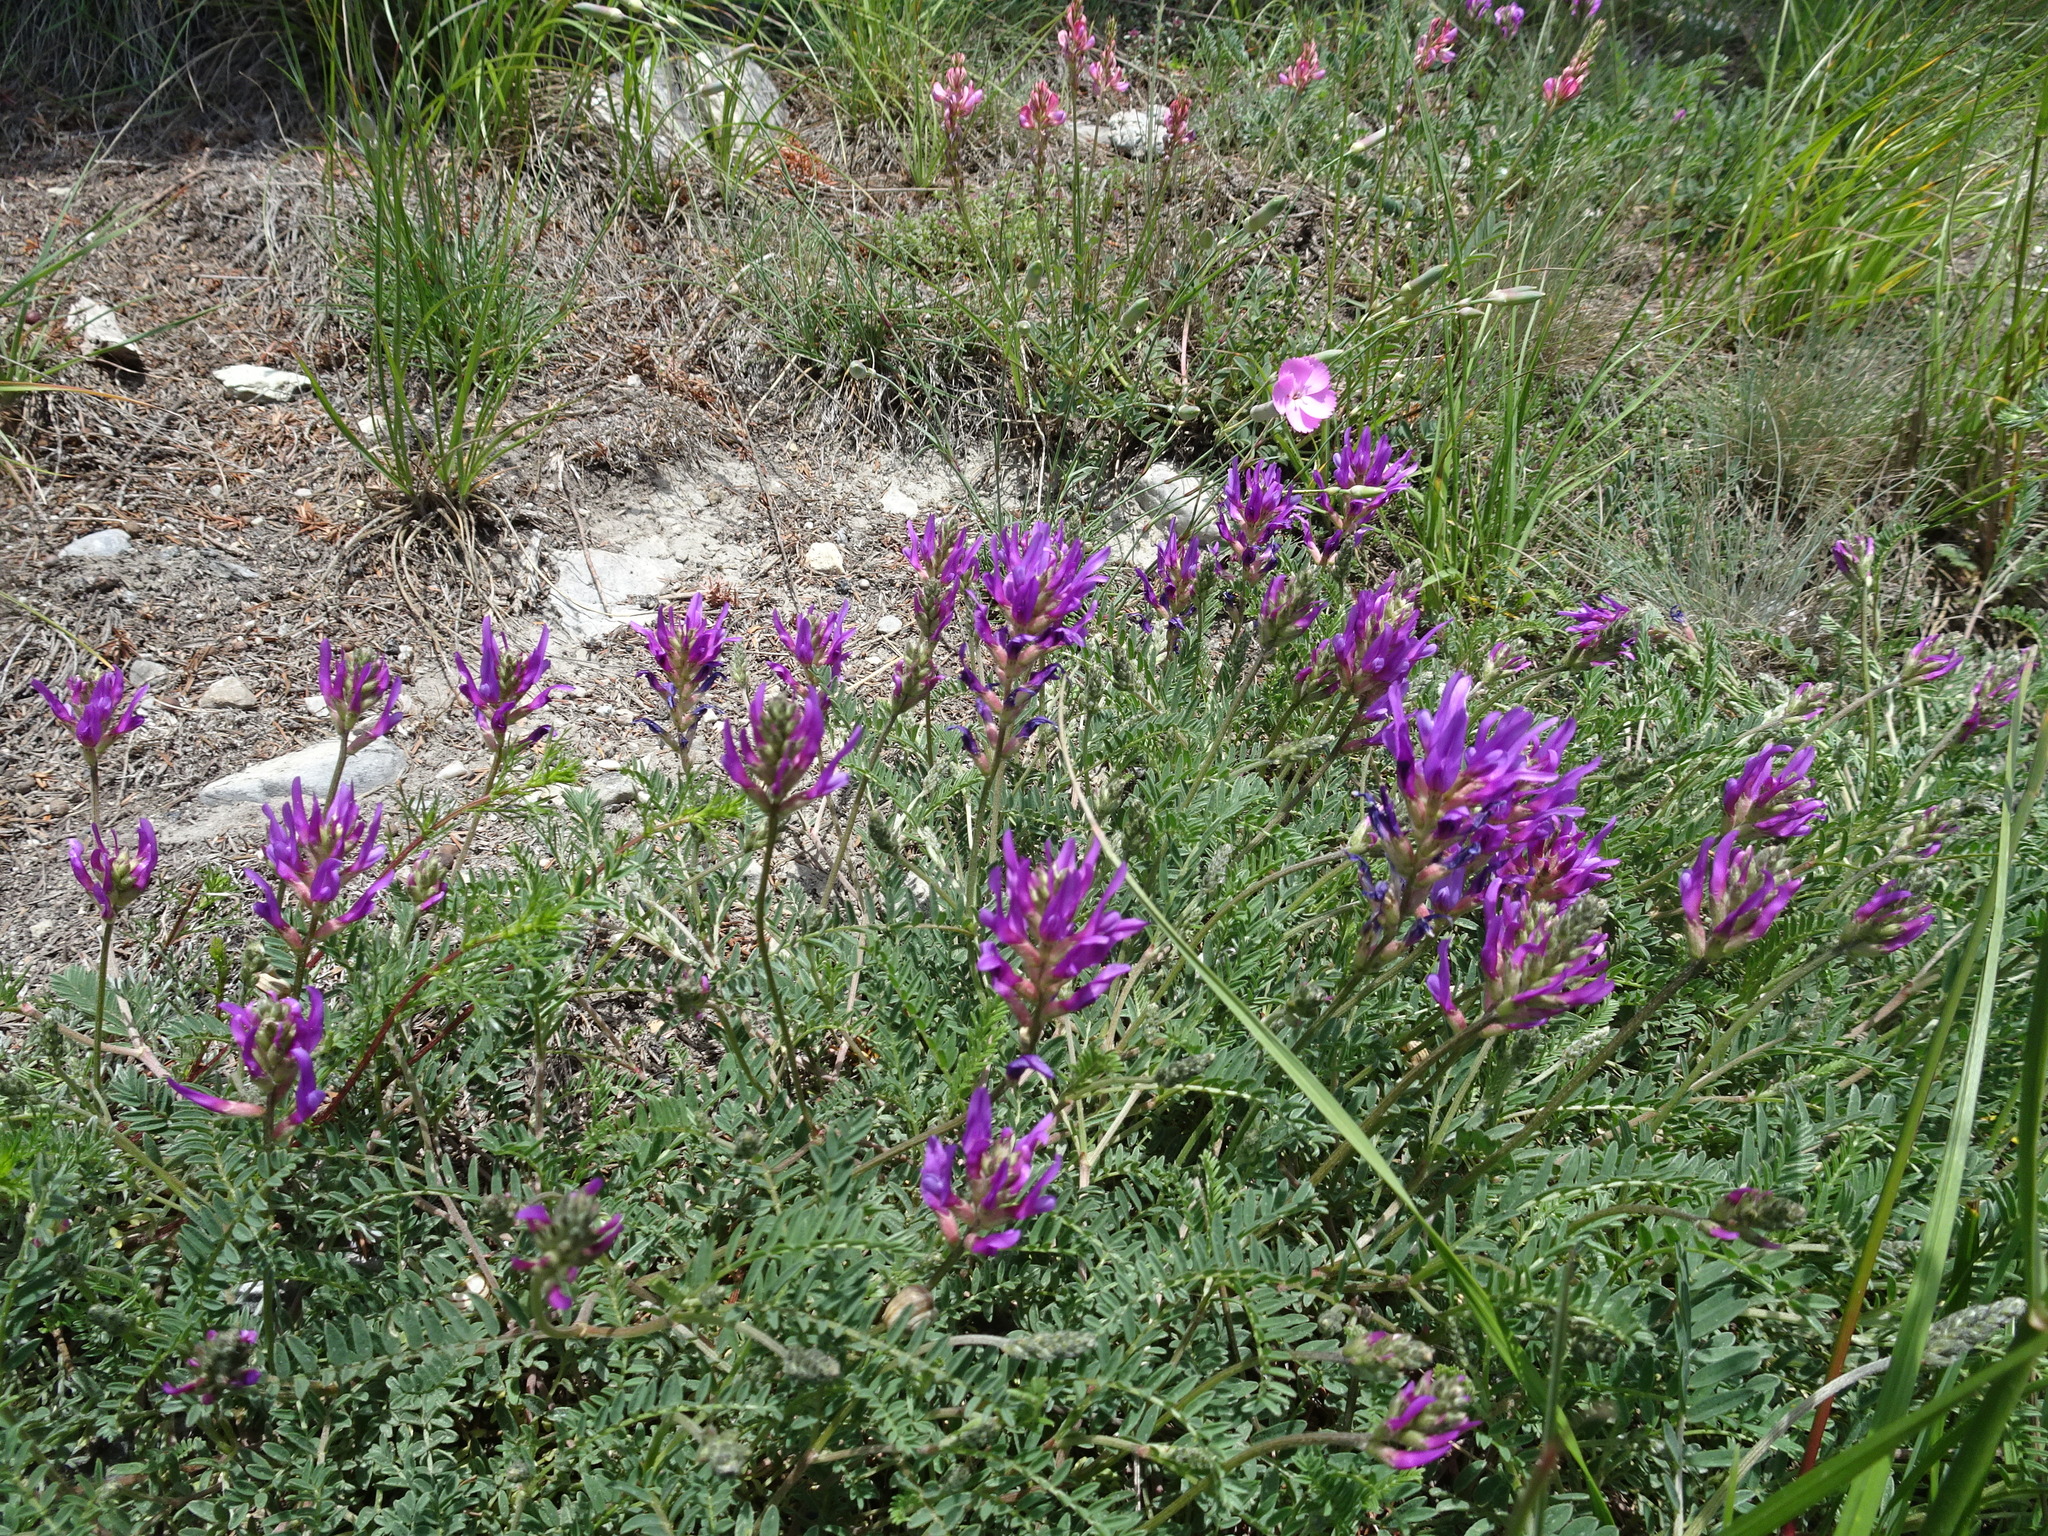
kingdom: Plantae
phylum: Tracheophyta
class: Magnoliopsida
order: Fabales
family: Fabaceae
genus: Astragalus
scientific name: Astragalus onobrychis
